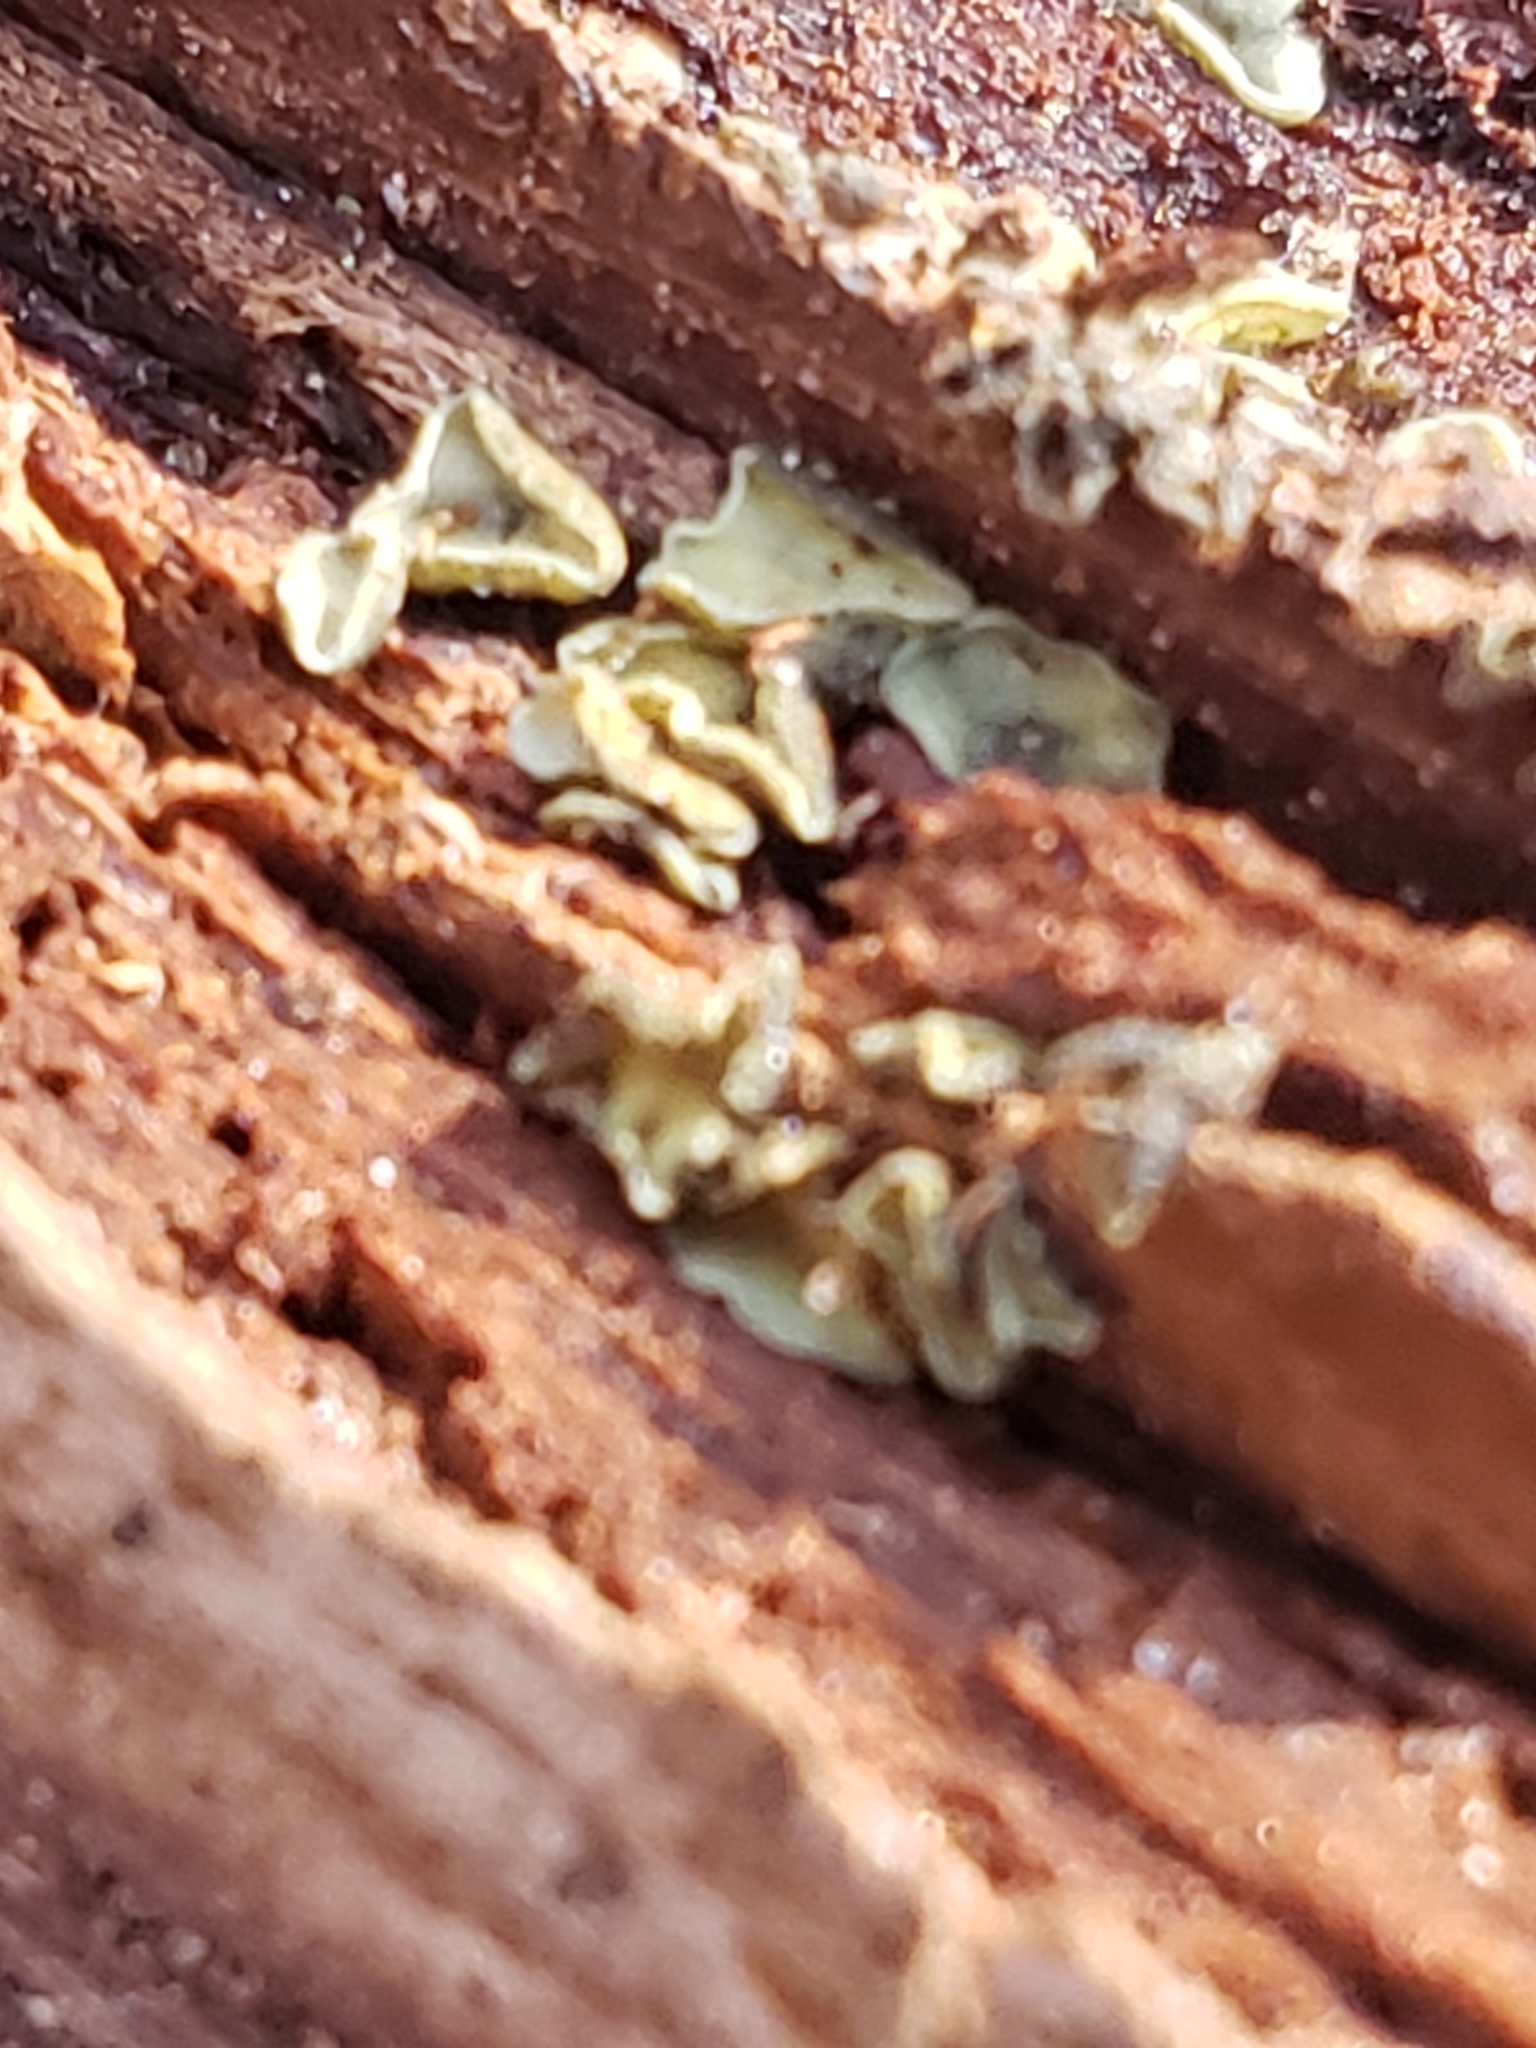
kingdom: Fungi
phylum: Ascomycota
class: Leotiomycetes
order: Helotiales
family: Chlorospleniaceae
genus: Chlorosplenium
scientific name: Chlorosplenium chlora
